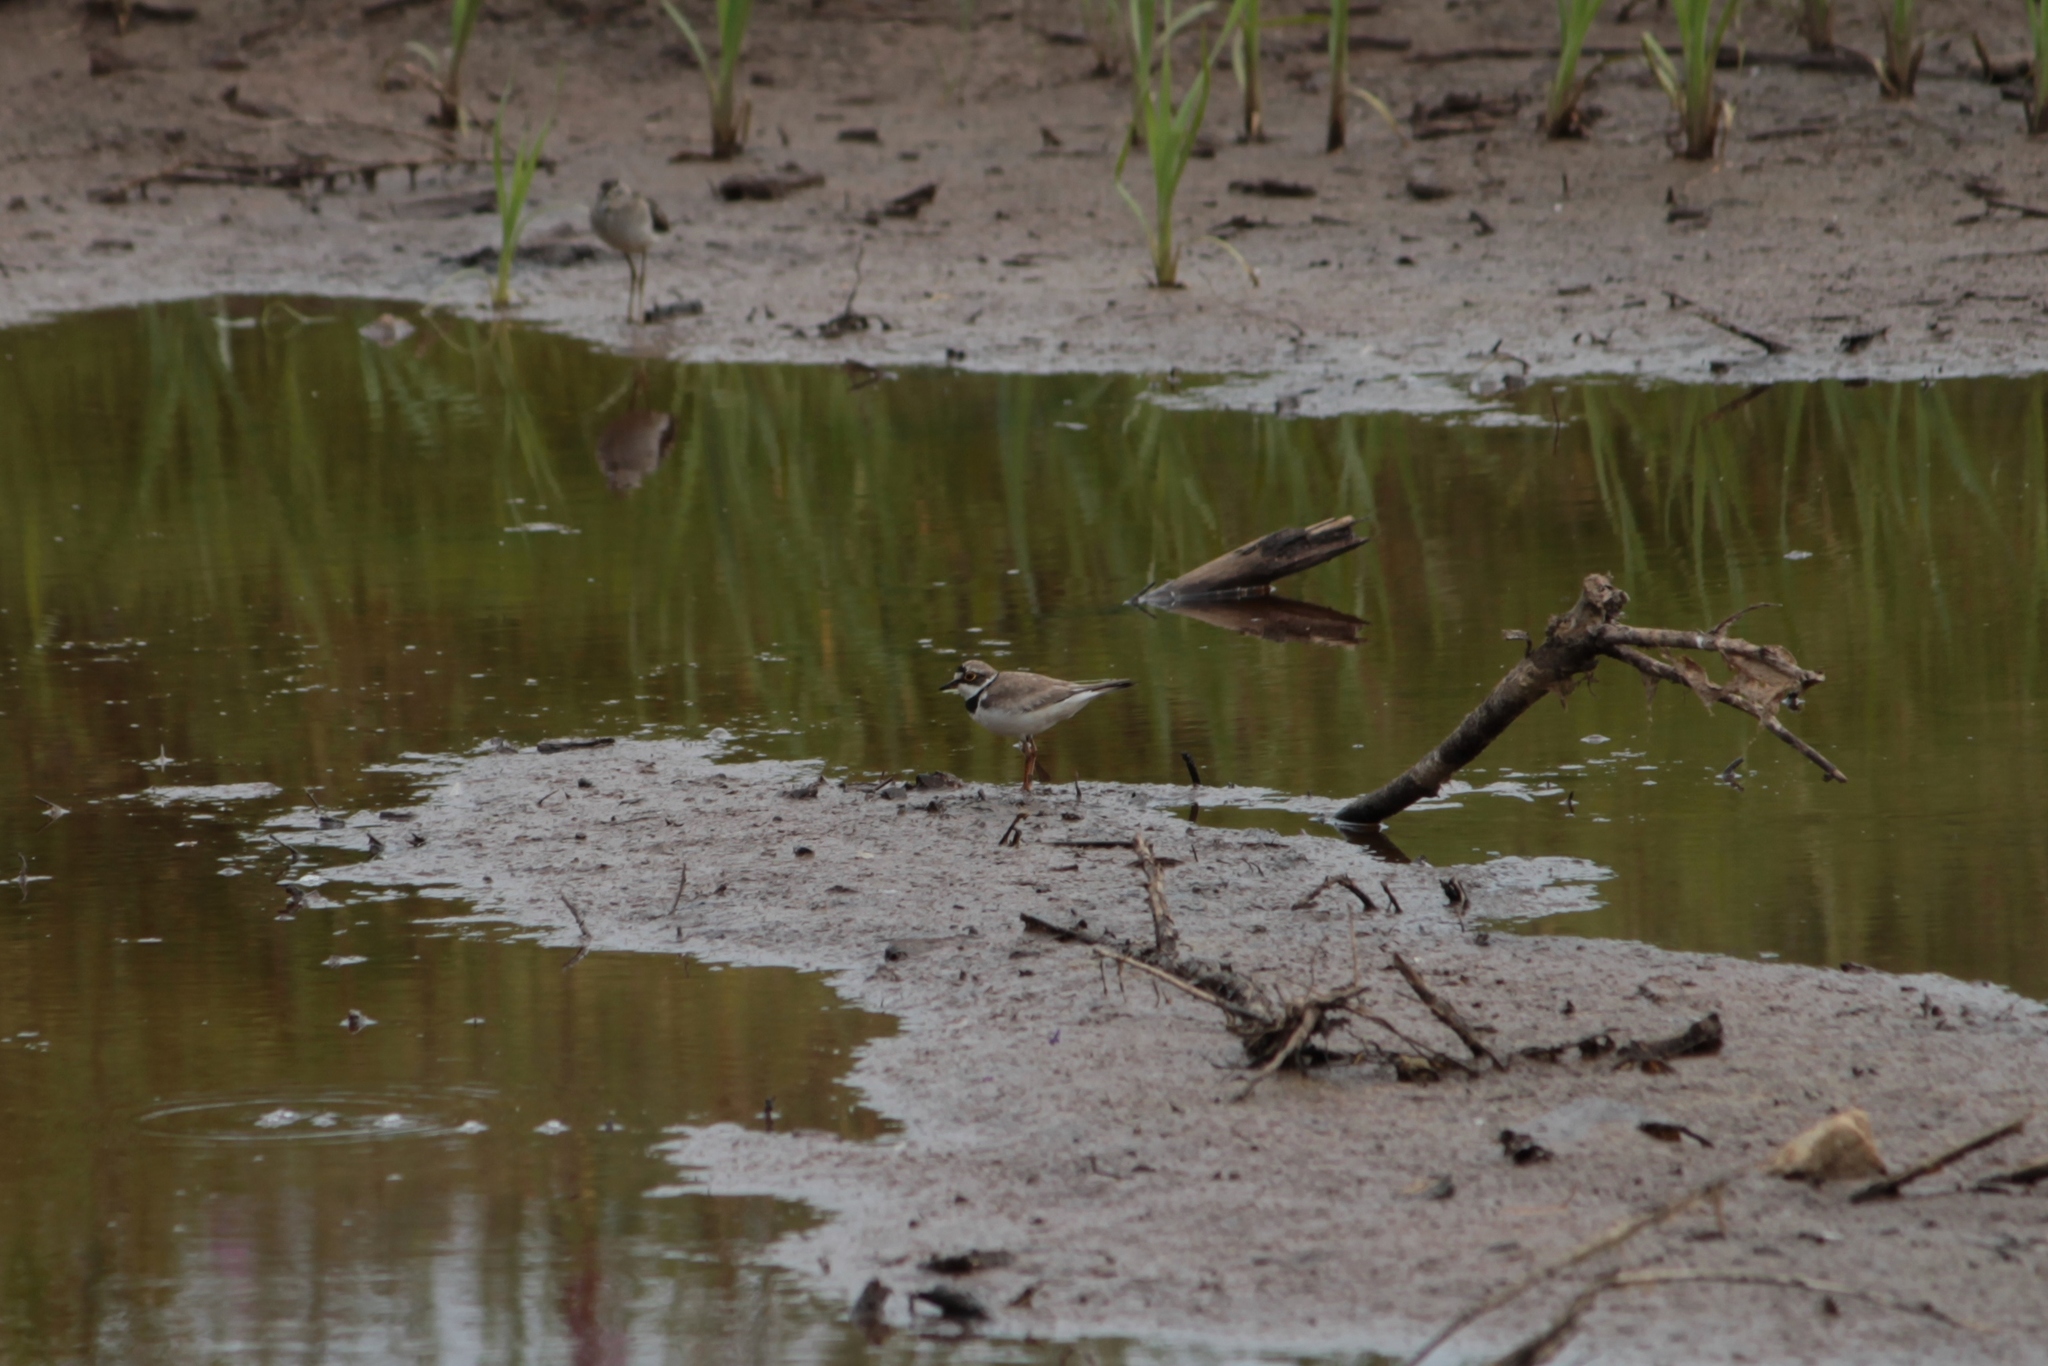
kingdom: Animalia
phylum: Chordata
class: Aves
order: Charadriiformes
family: Charadriidae
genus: Charadrius
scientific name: Charadrius dubius
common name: Little ringed plover
